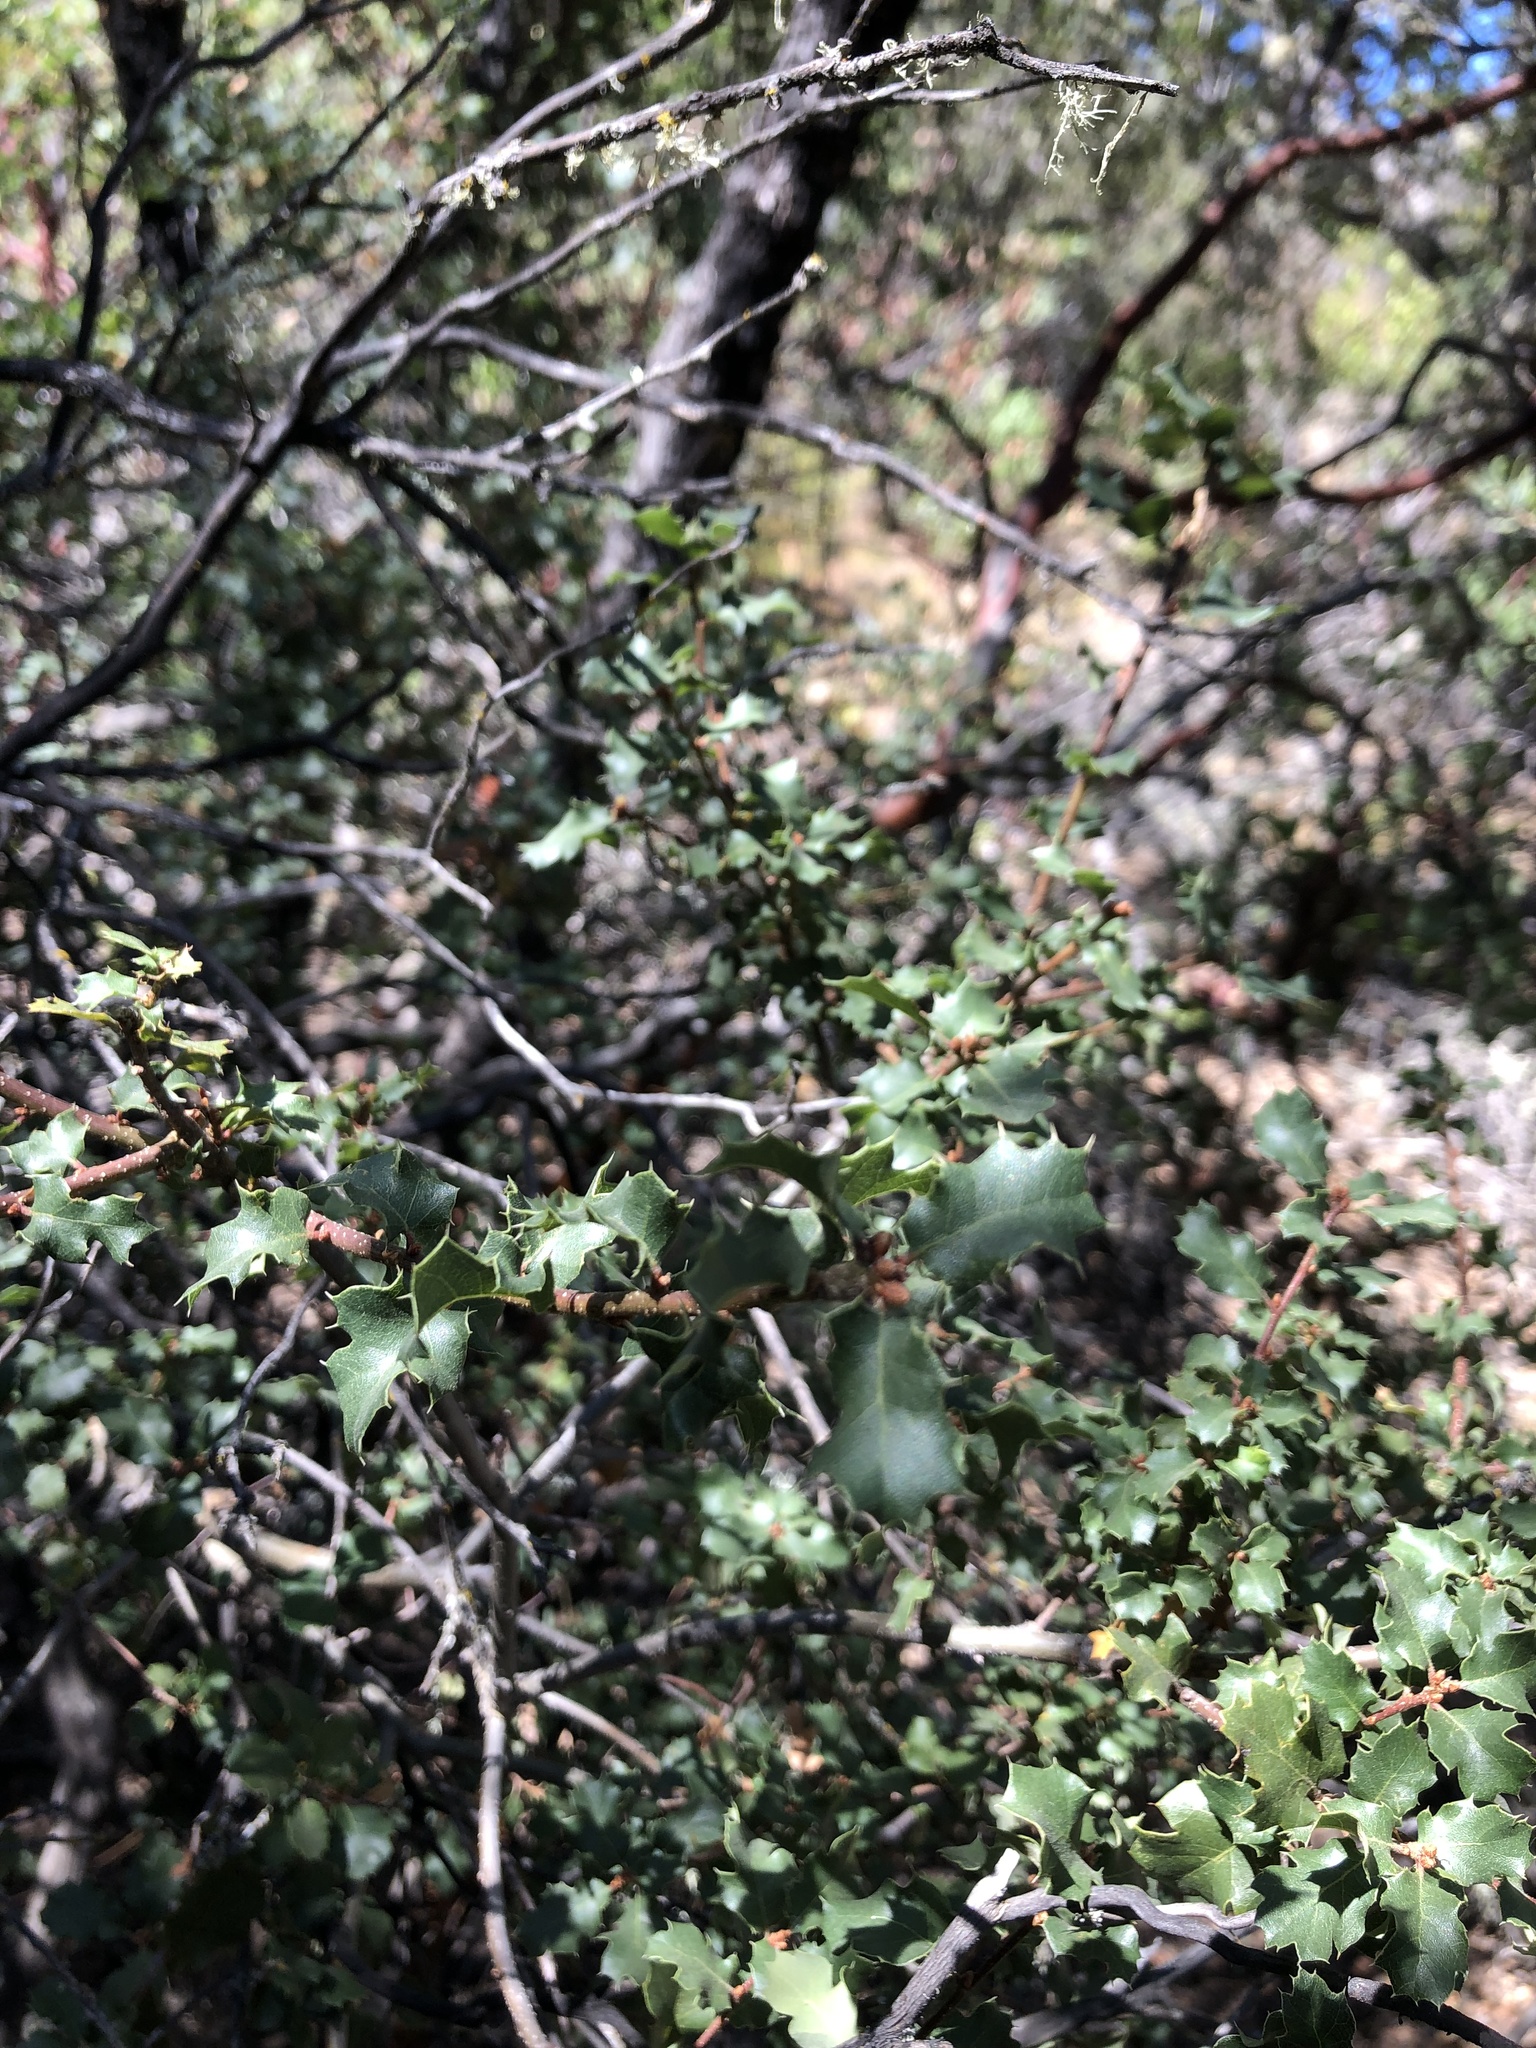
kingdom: Plantae
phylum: Tracheophyta
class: Magnoliopsida
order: Fagales
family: Fagaceae
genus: Quercus
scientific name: Quercus berberidifolia
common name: California scrub oak
